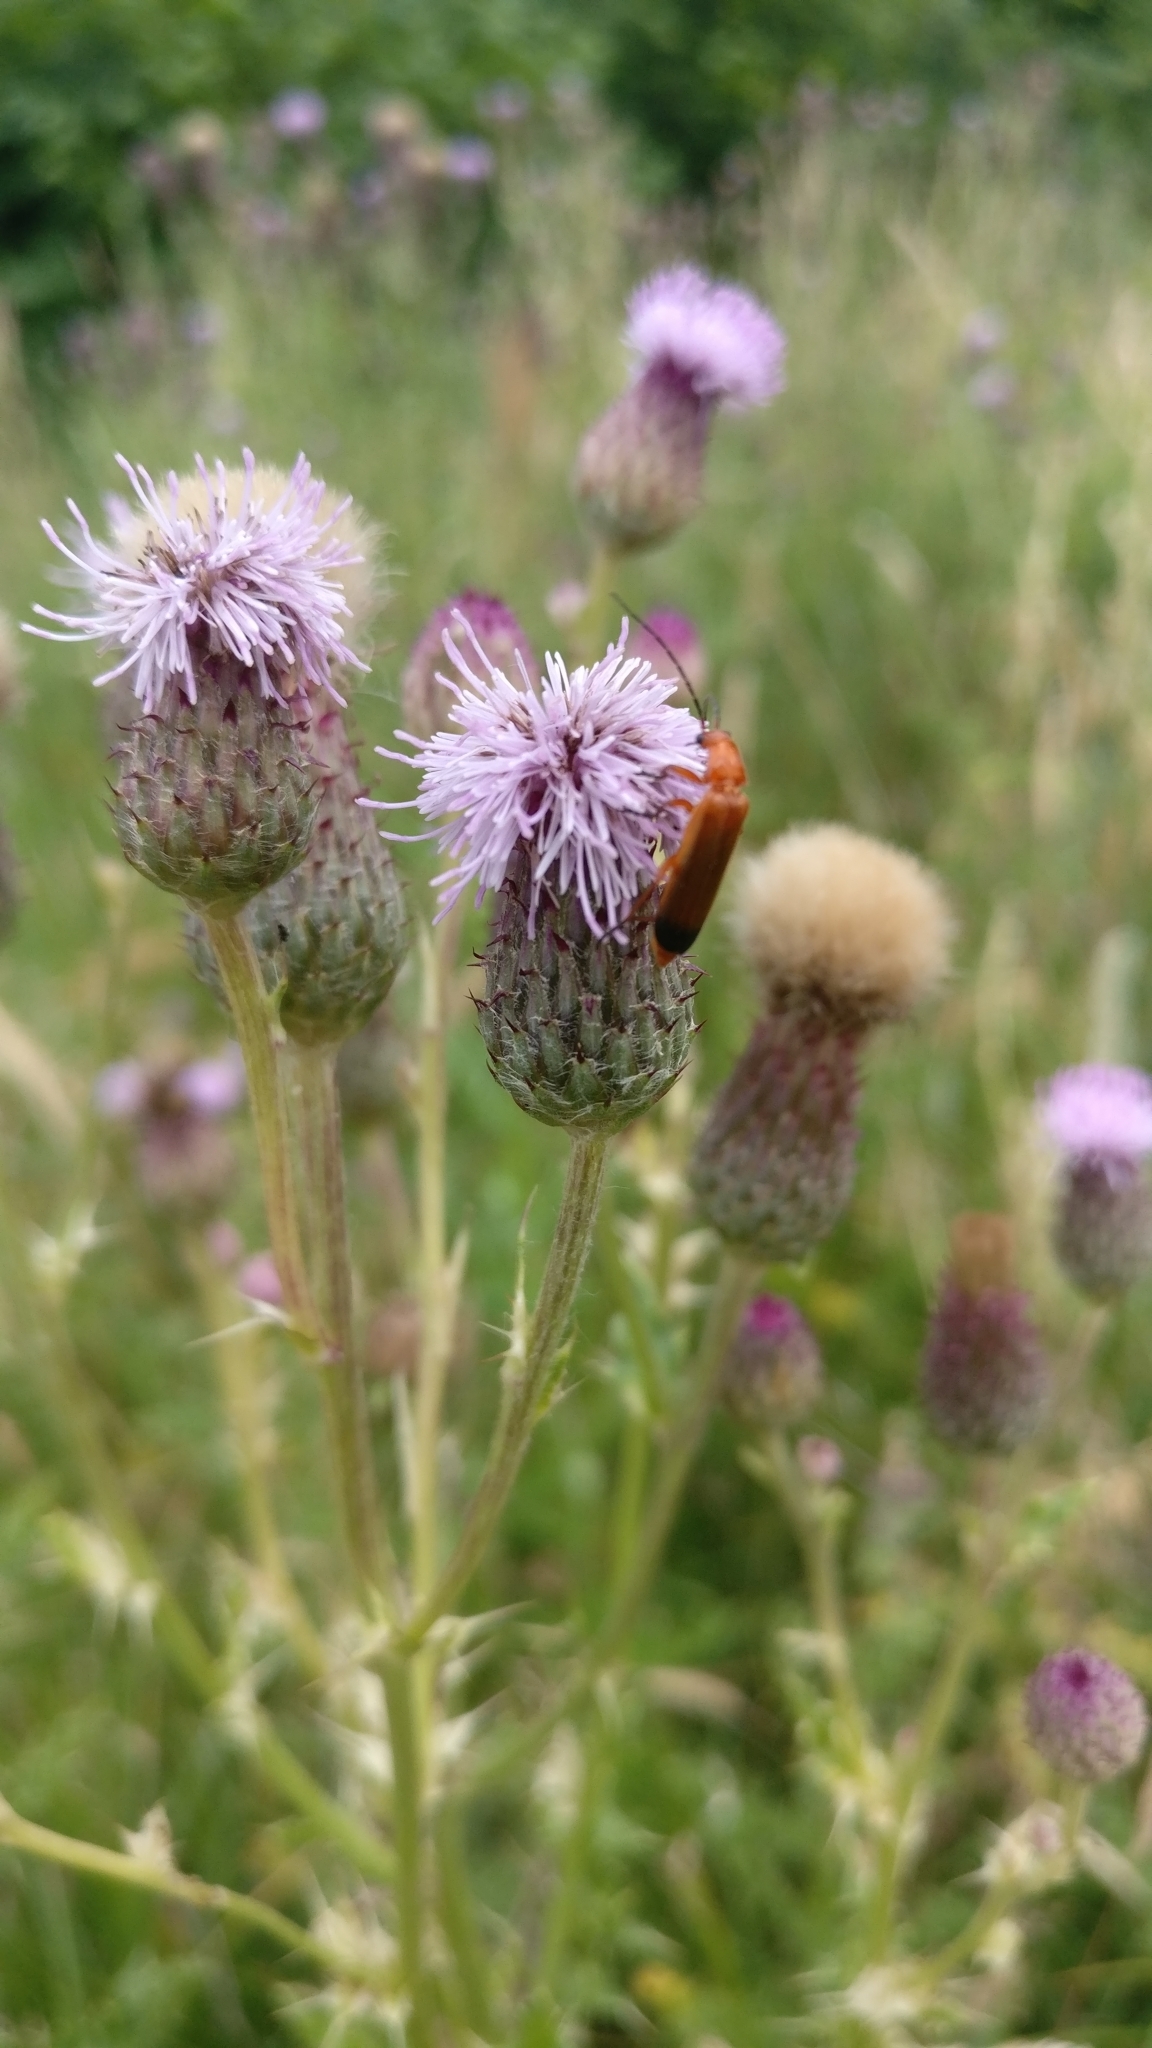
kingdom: Animalia
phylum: Arthropoda
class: Insecta
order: Coleoptera
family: Cantharidae
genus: Rhagonycha
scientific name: Rhagonycha fulva
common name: Common red soldier beetle
